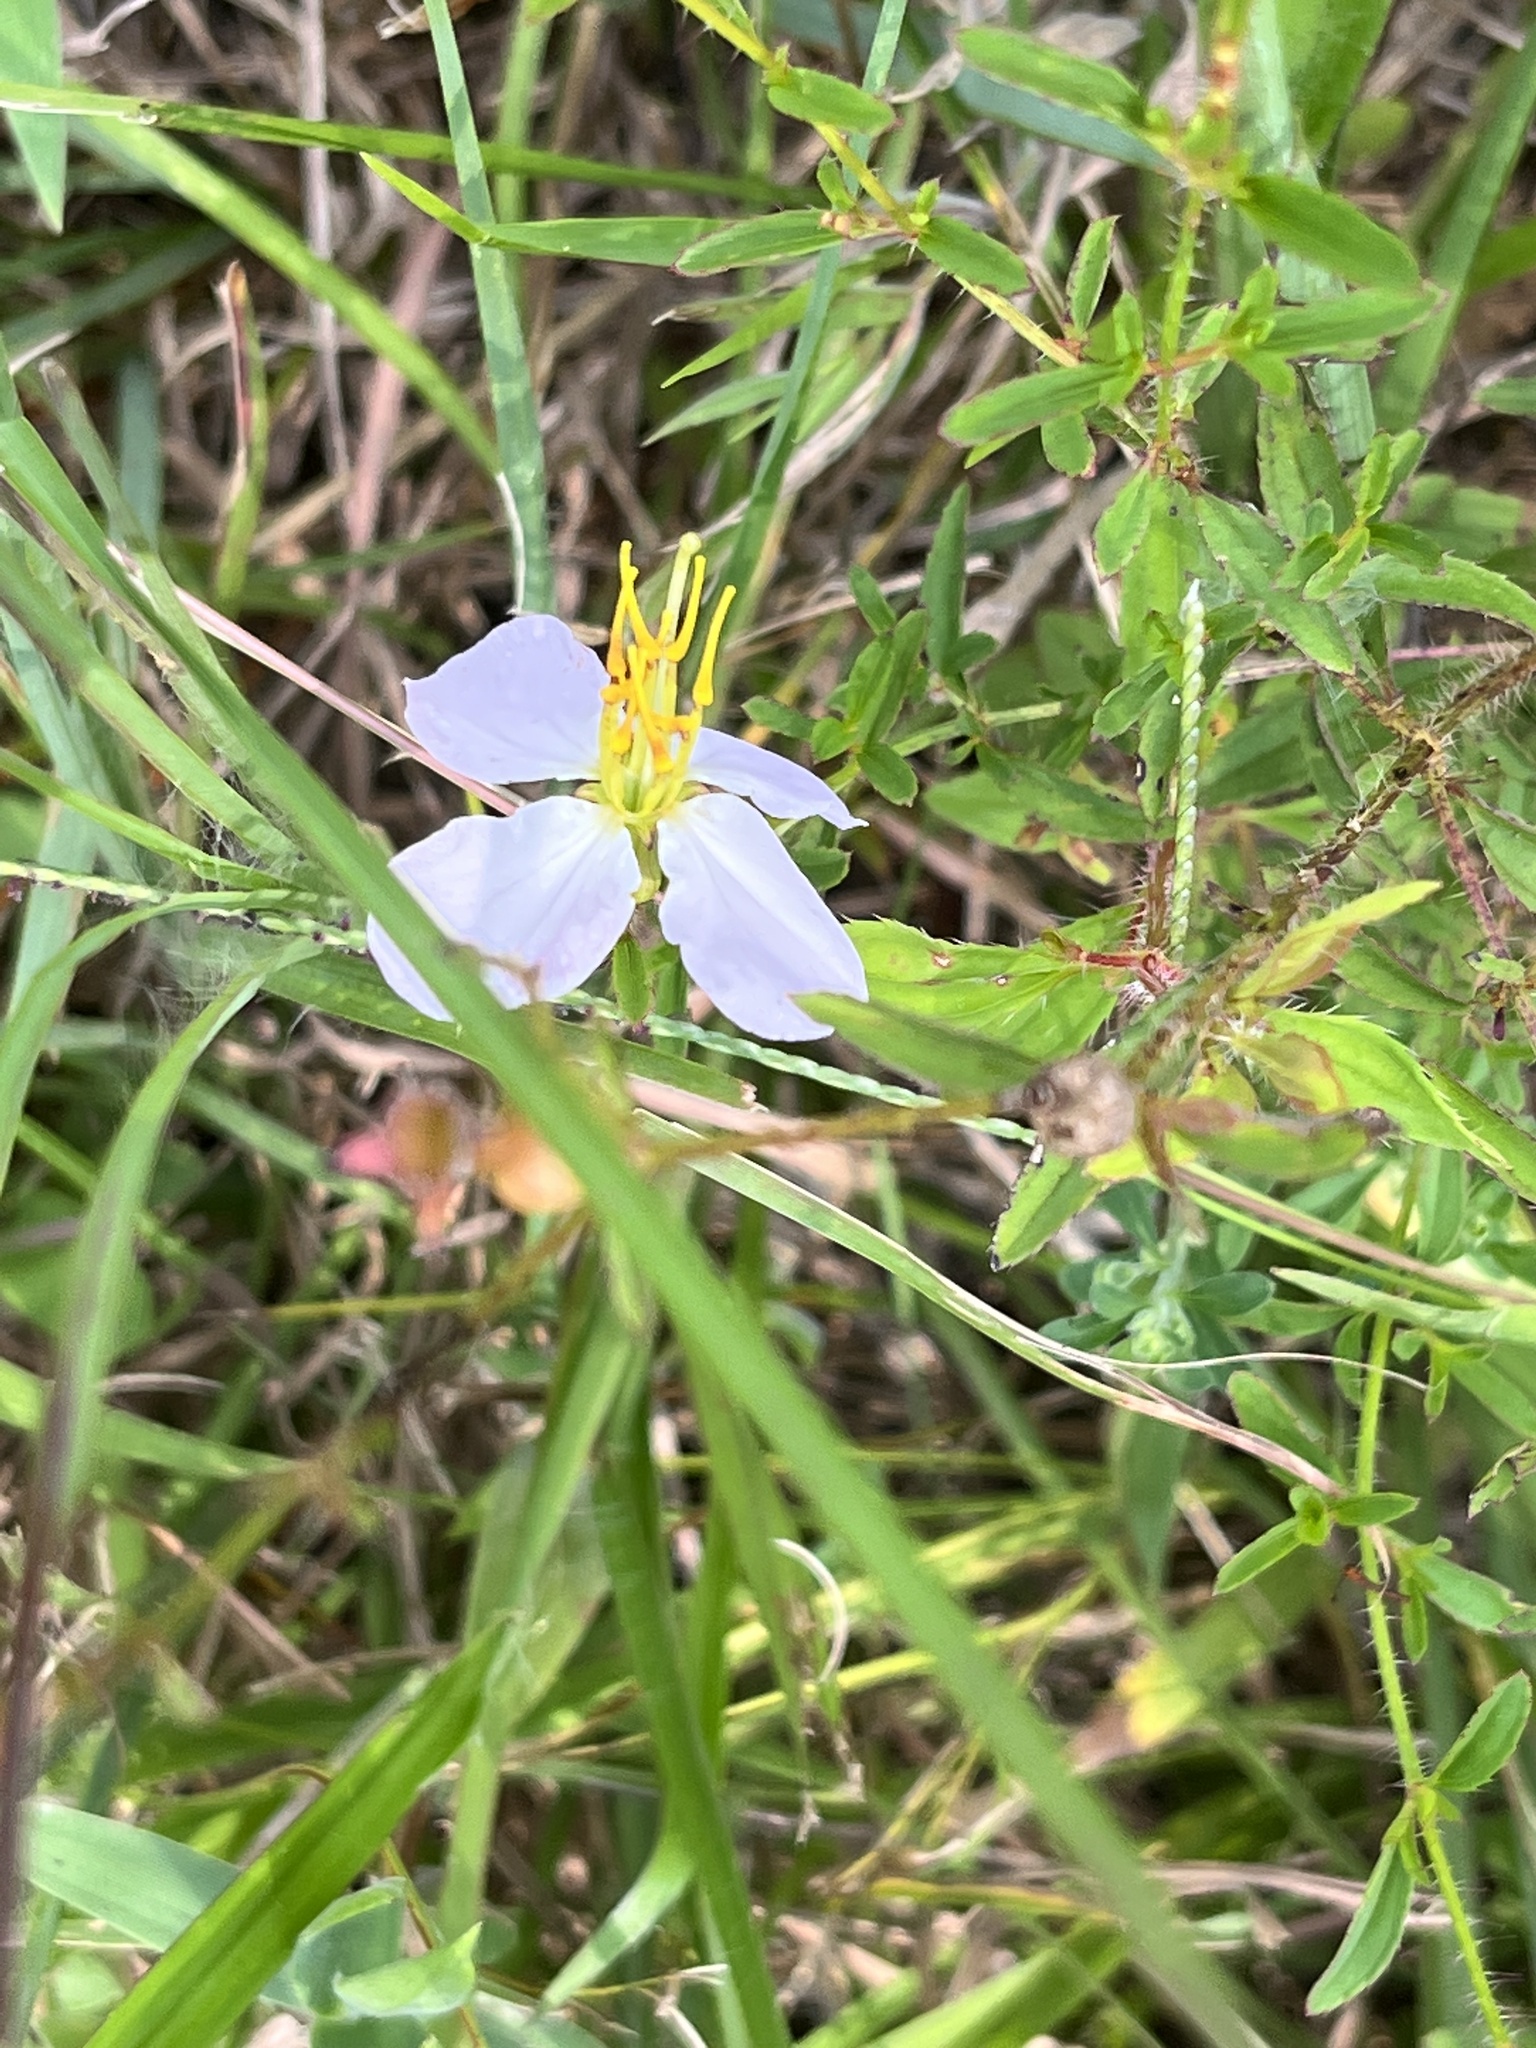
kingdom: Plantae
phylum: Tracheophyta
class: Magnoliopsida
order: Myrtales
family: Melastomataceae
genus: Rhexia
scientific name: Rhexia mariana
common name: Dull meadow-pitcher
